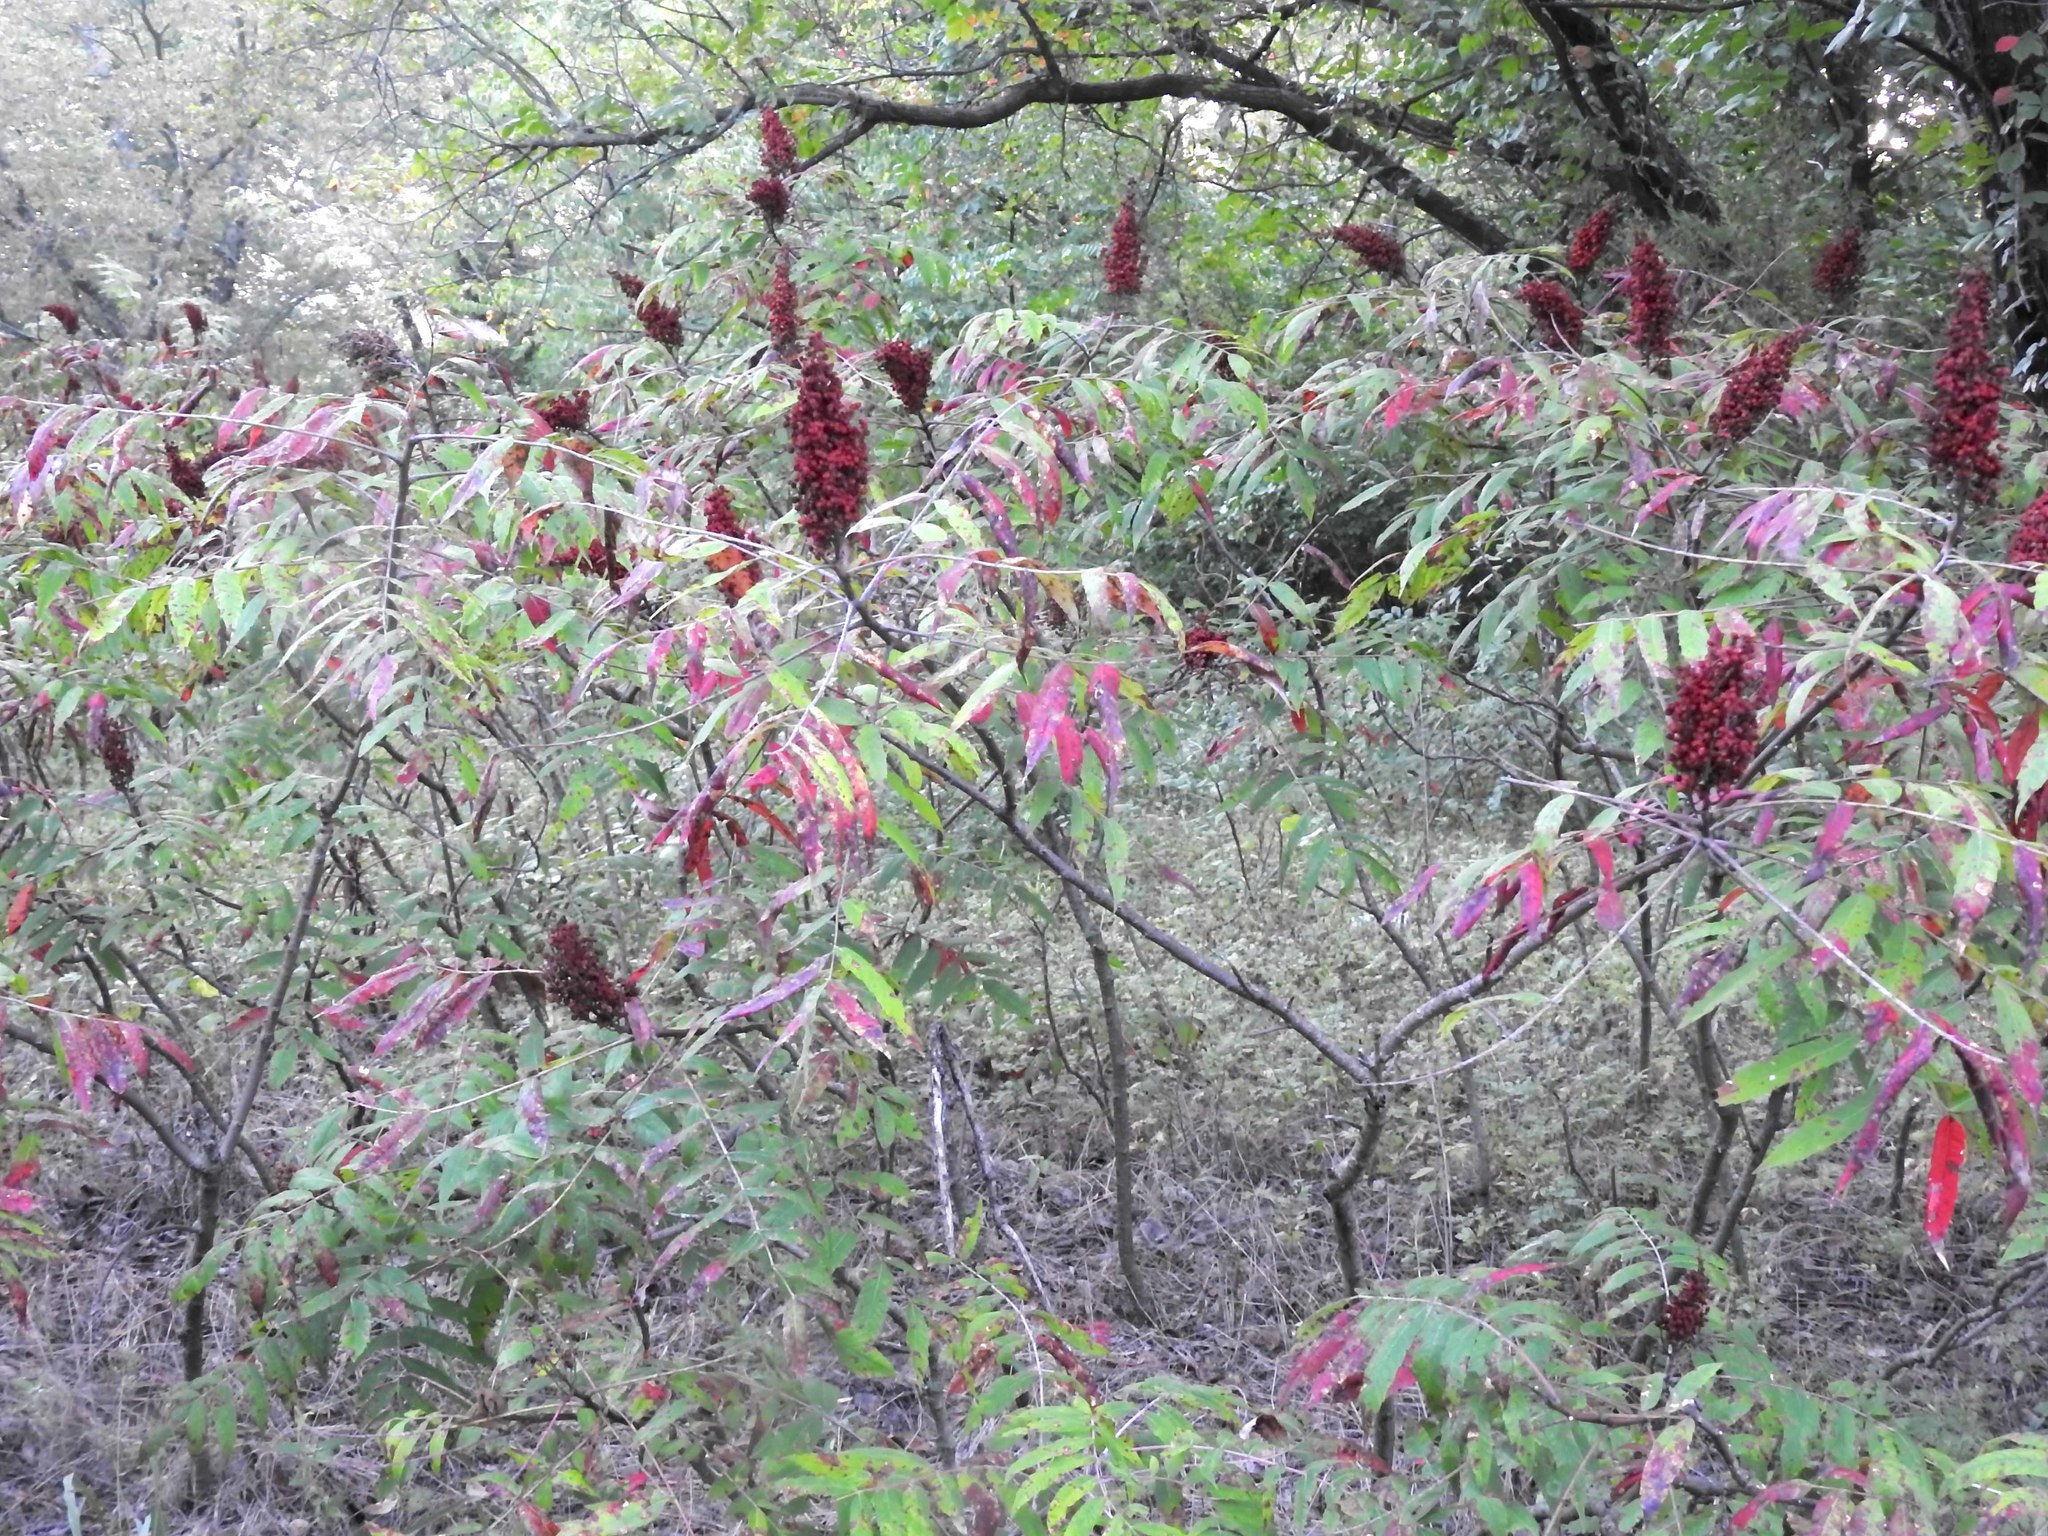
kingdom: Plantae
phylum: Tracheophyta
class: Magnoliopsida
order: Sapindales
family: Anacardiaceae
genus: Rhus
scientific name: Rhus glabra
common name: Scarlet sumac
